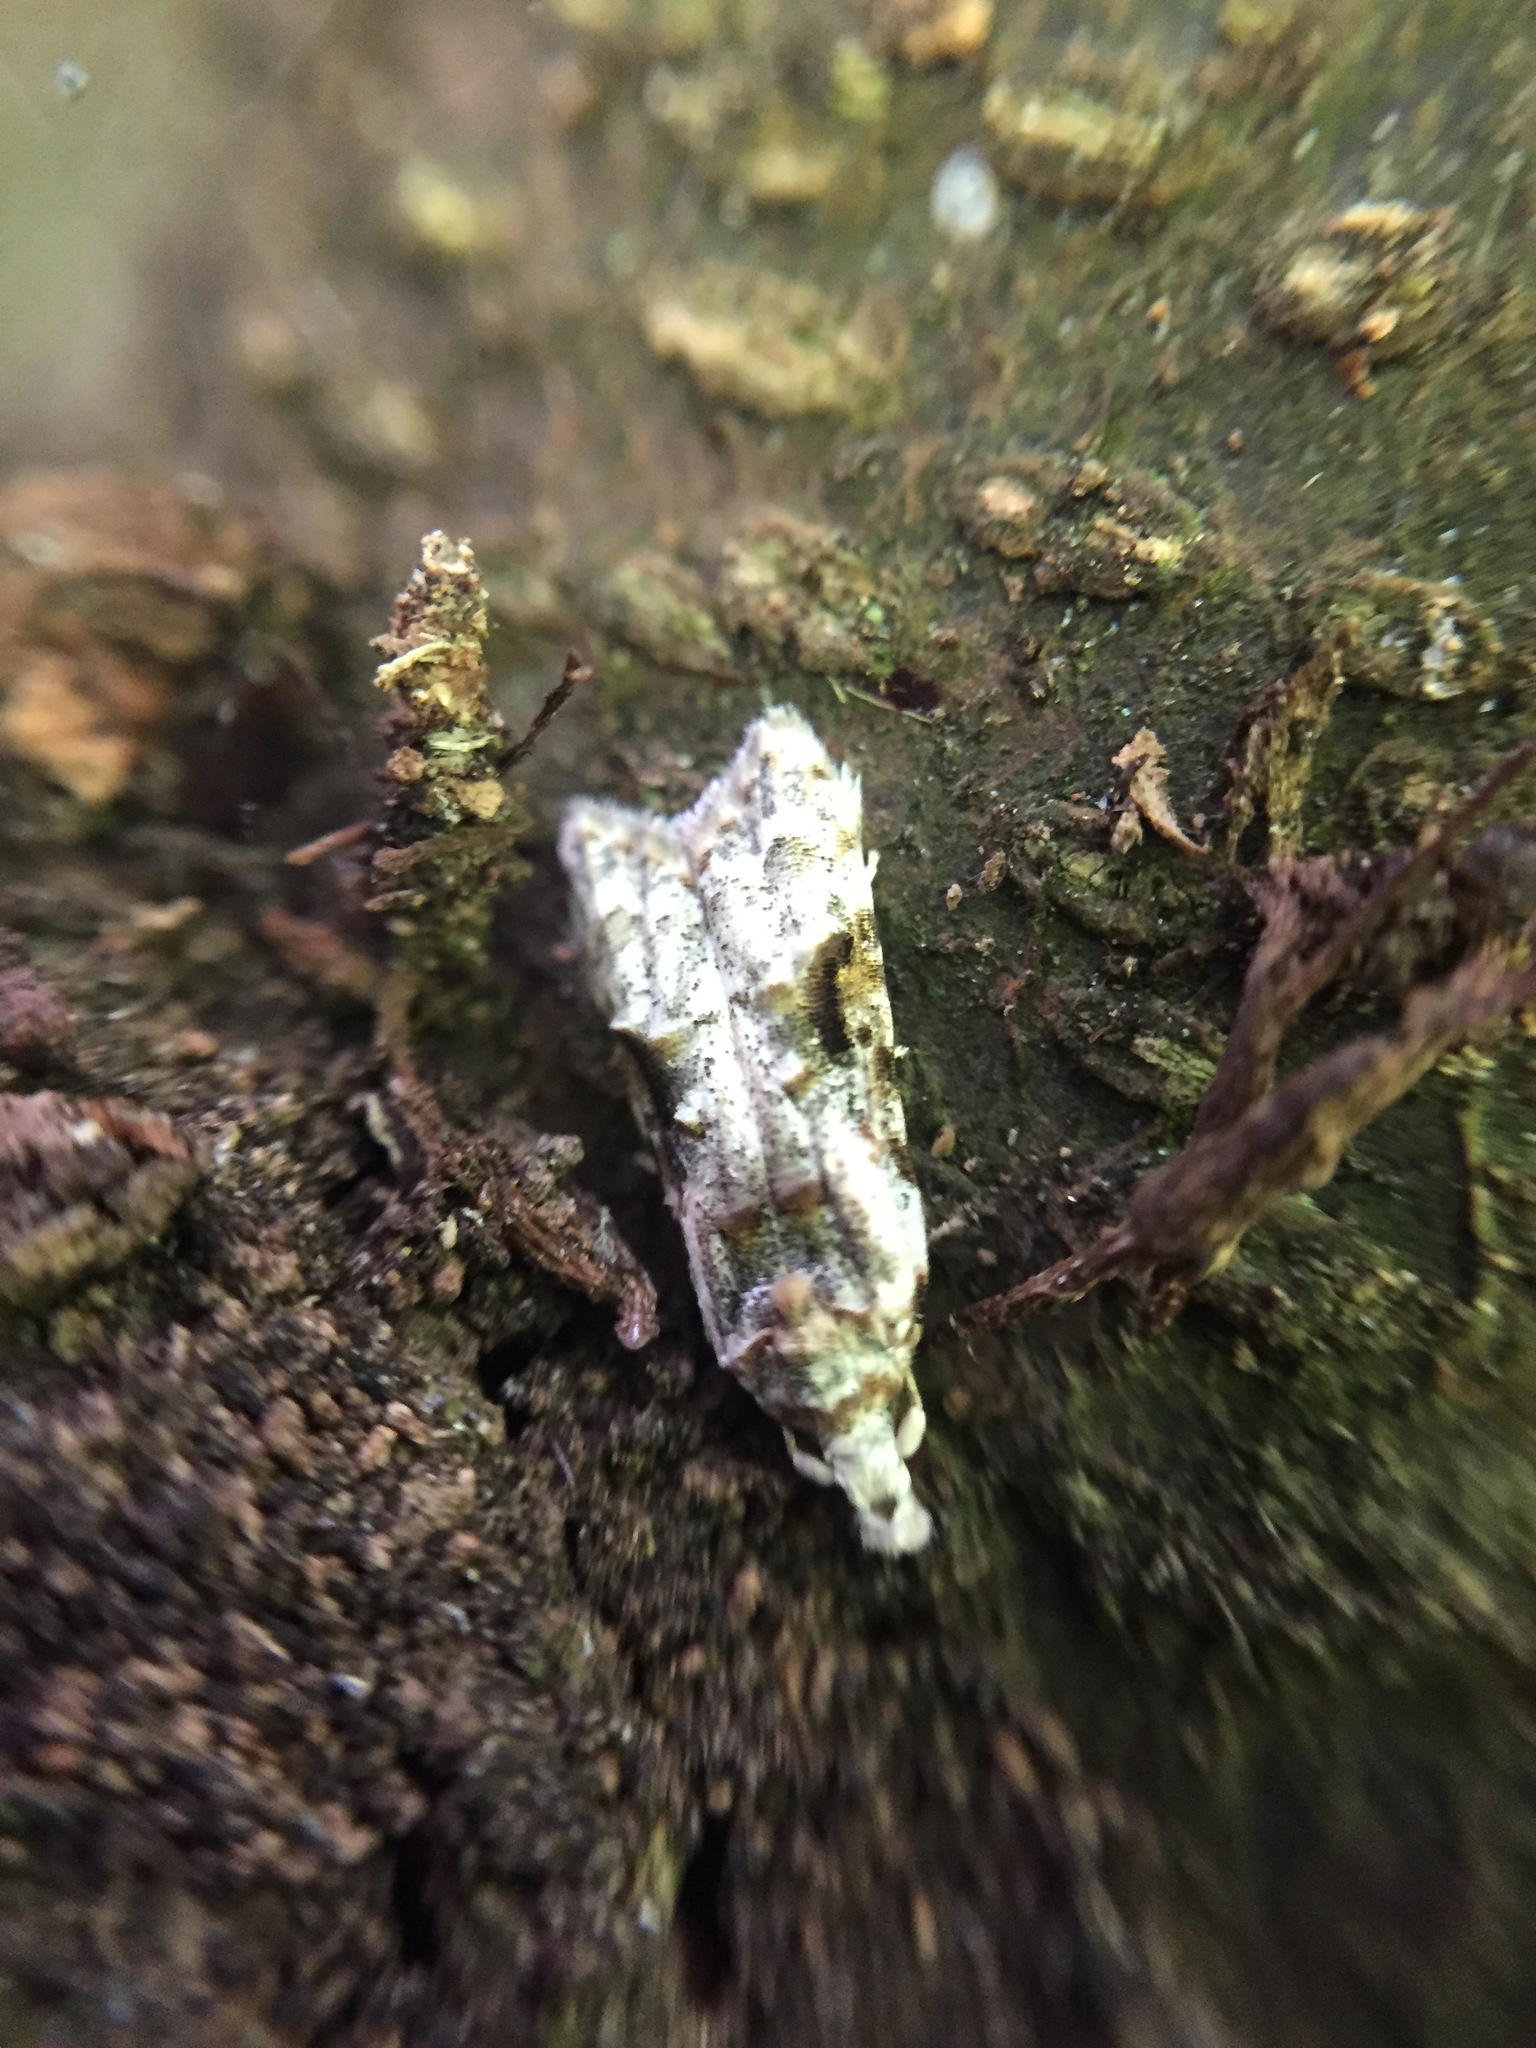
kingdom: Animalia
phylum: Arthropoda
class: Insecta
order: Lepidoptera
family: Carposinidae
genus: Coscinoptycha
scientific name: Coscinoptycha improbana
